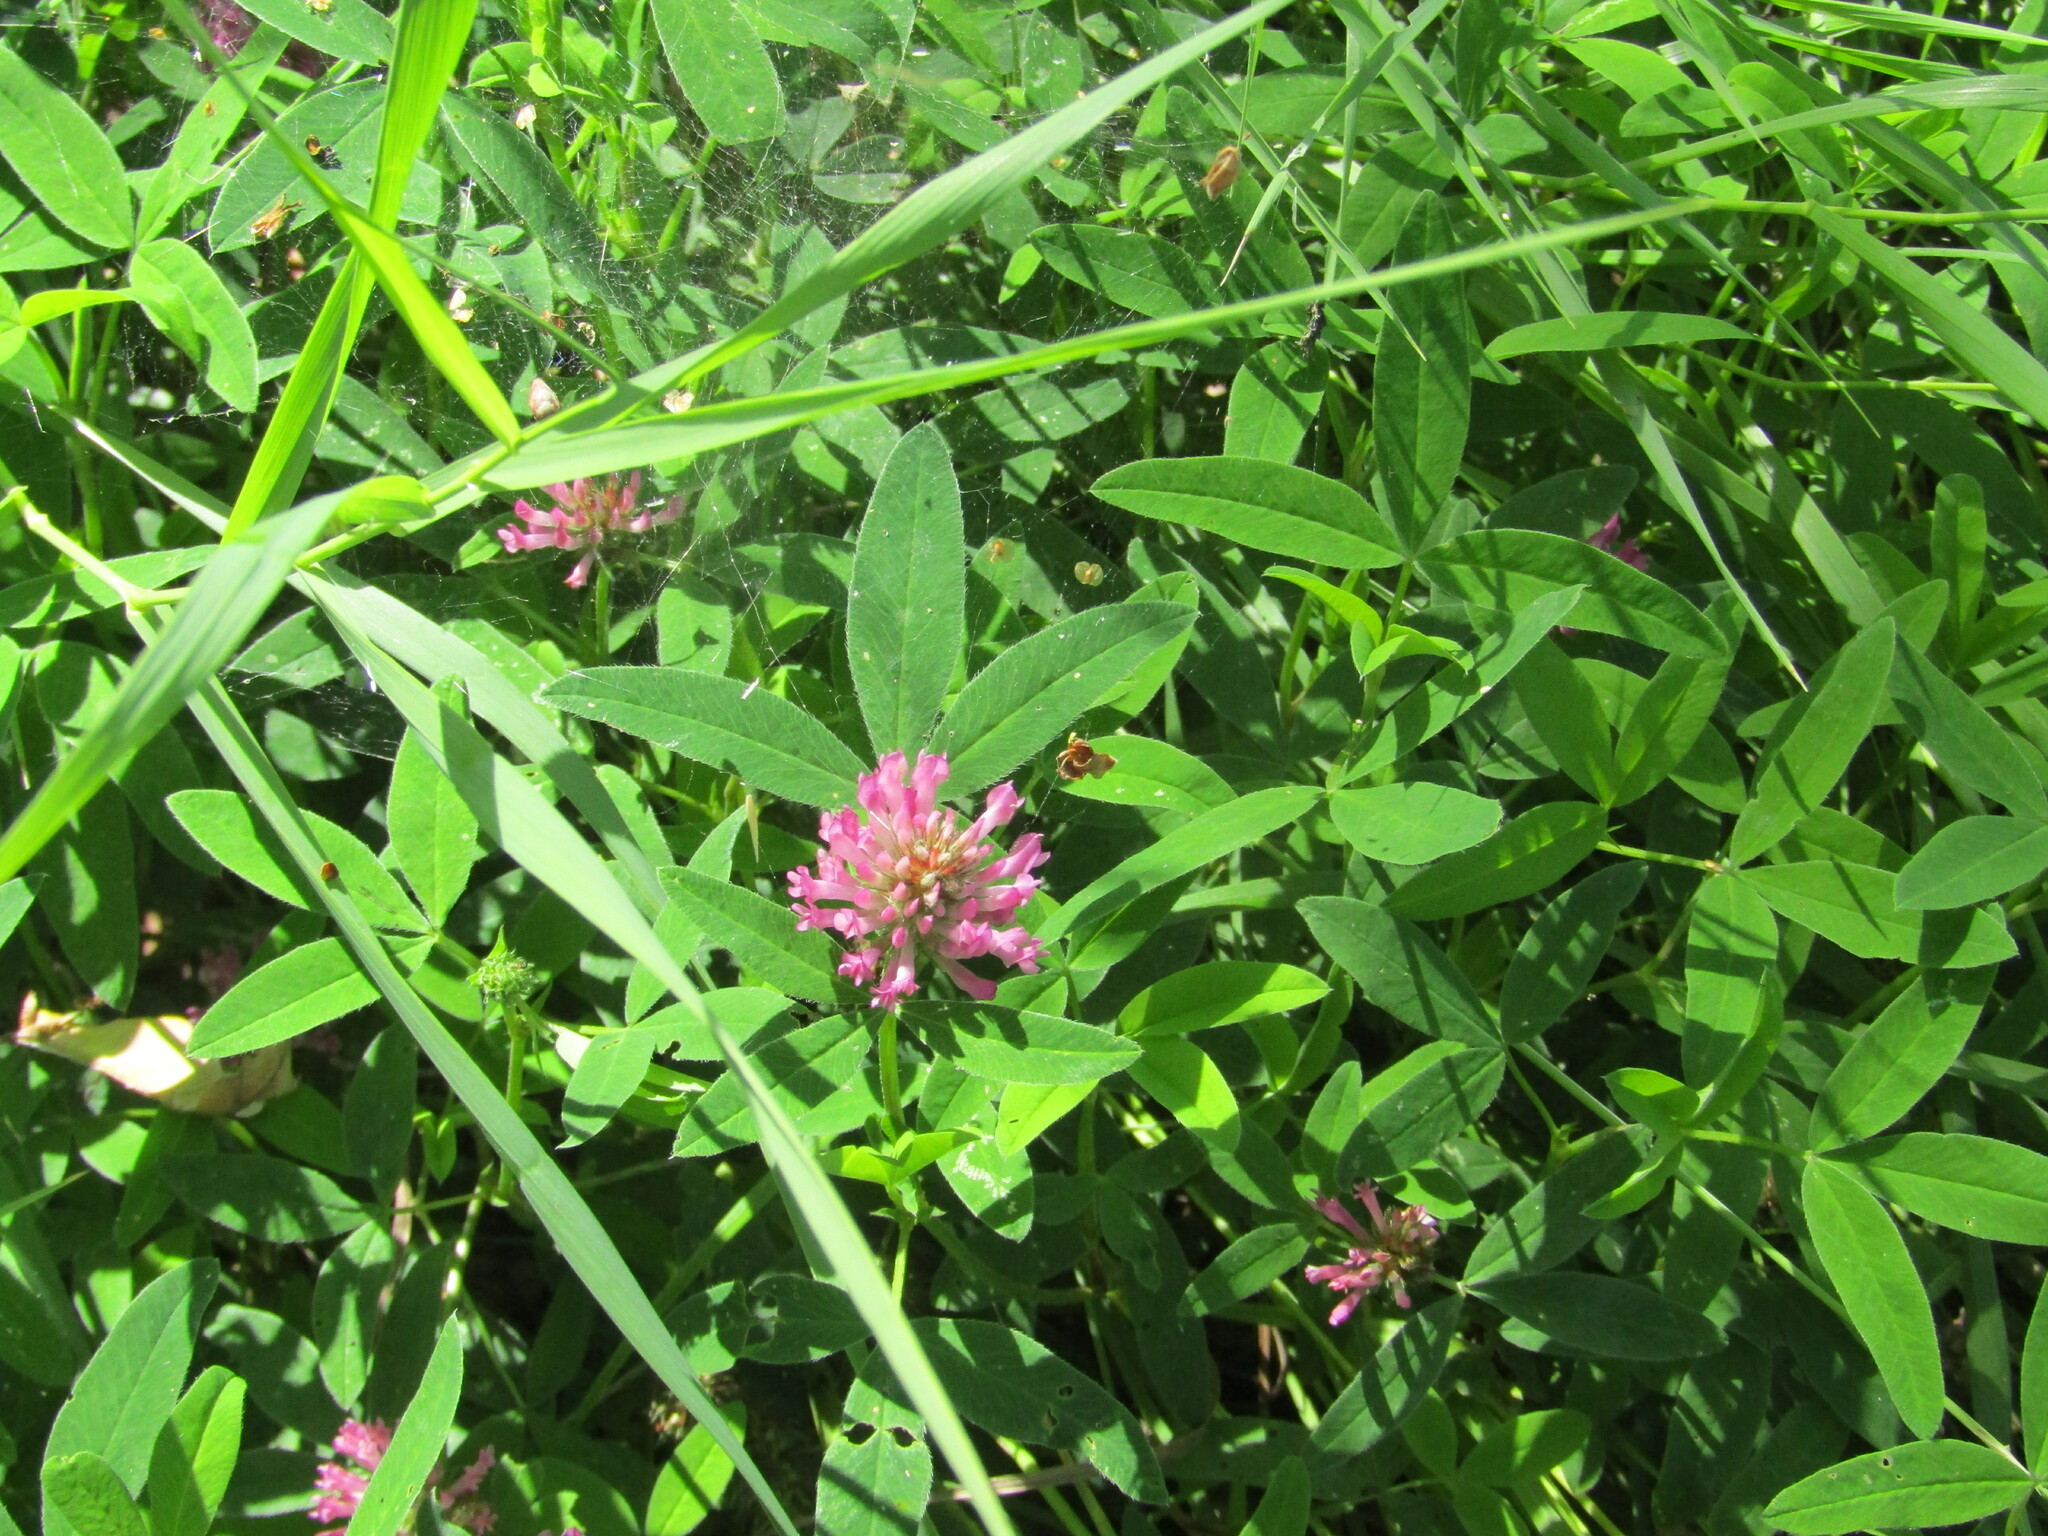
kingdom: Plantae
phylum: Tracheophyta
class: Magnoliopsida
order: Fabales
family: Fabaceae
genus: Trifolium
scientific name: Trifolium medium
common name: Zigzag clover
